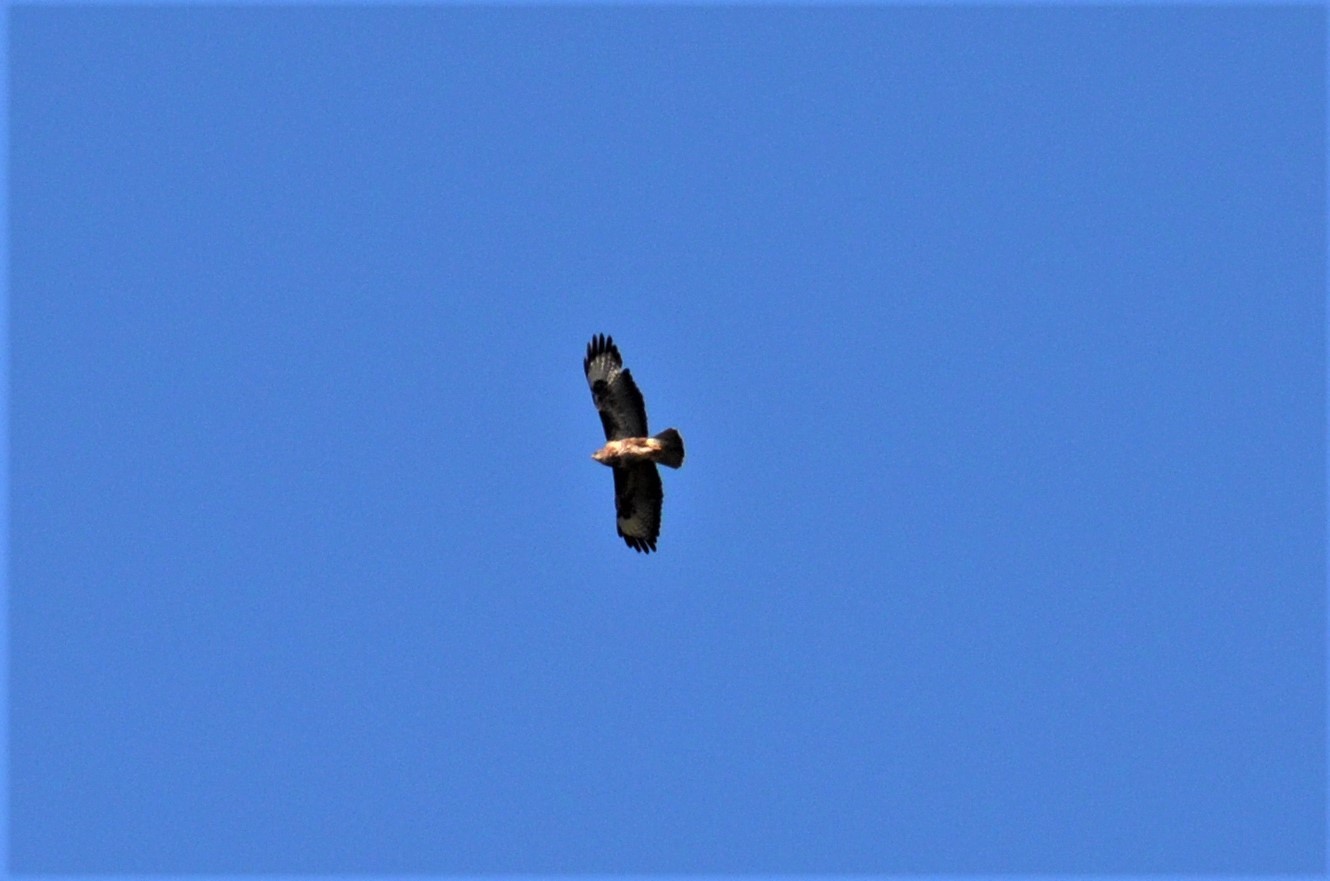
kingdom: Animalia
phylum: Chordata
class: Aves
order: Accipitriformes
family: Accipitridae
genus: Buteo
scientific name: Buteo buteo
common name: Common buzzard
